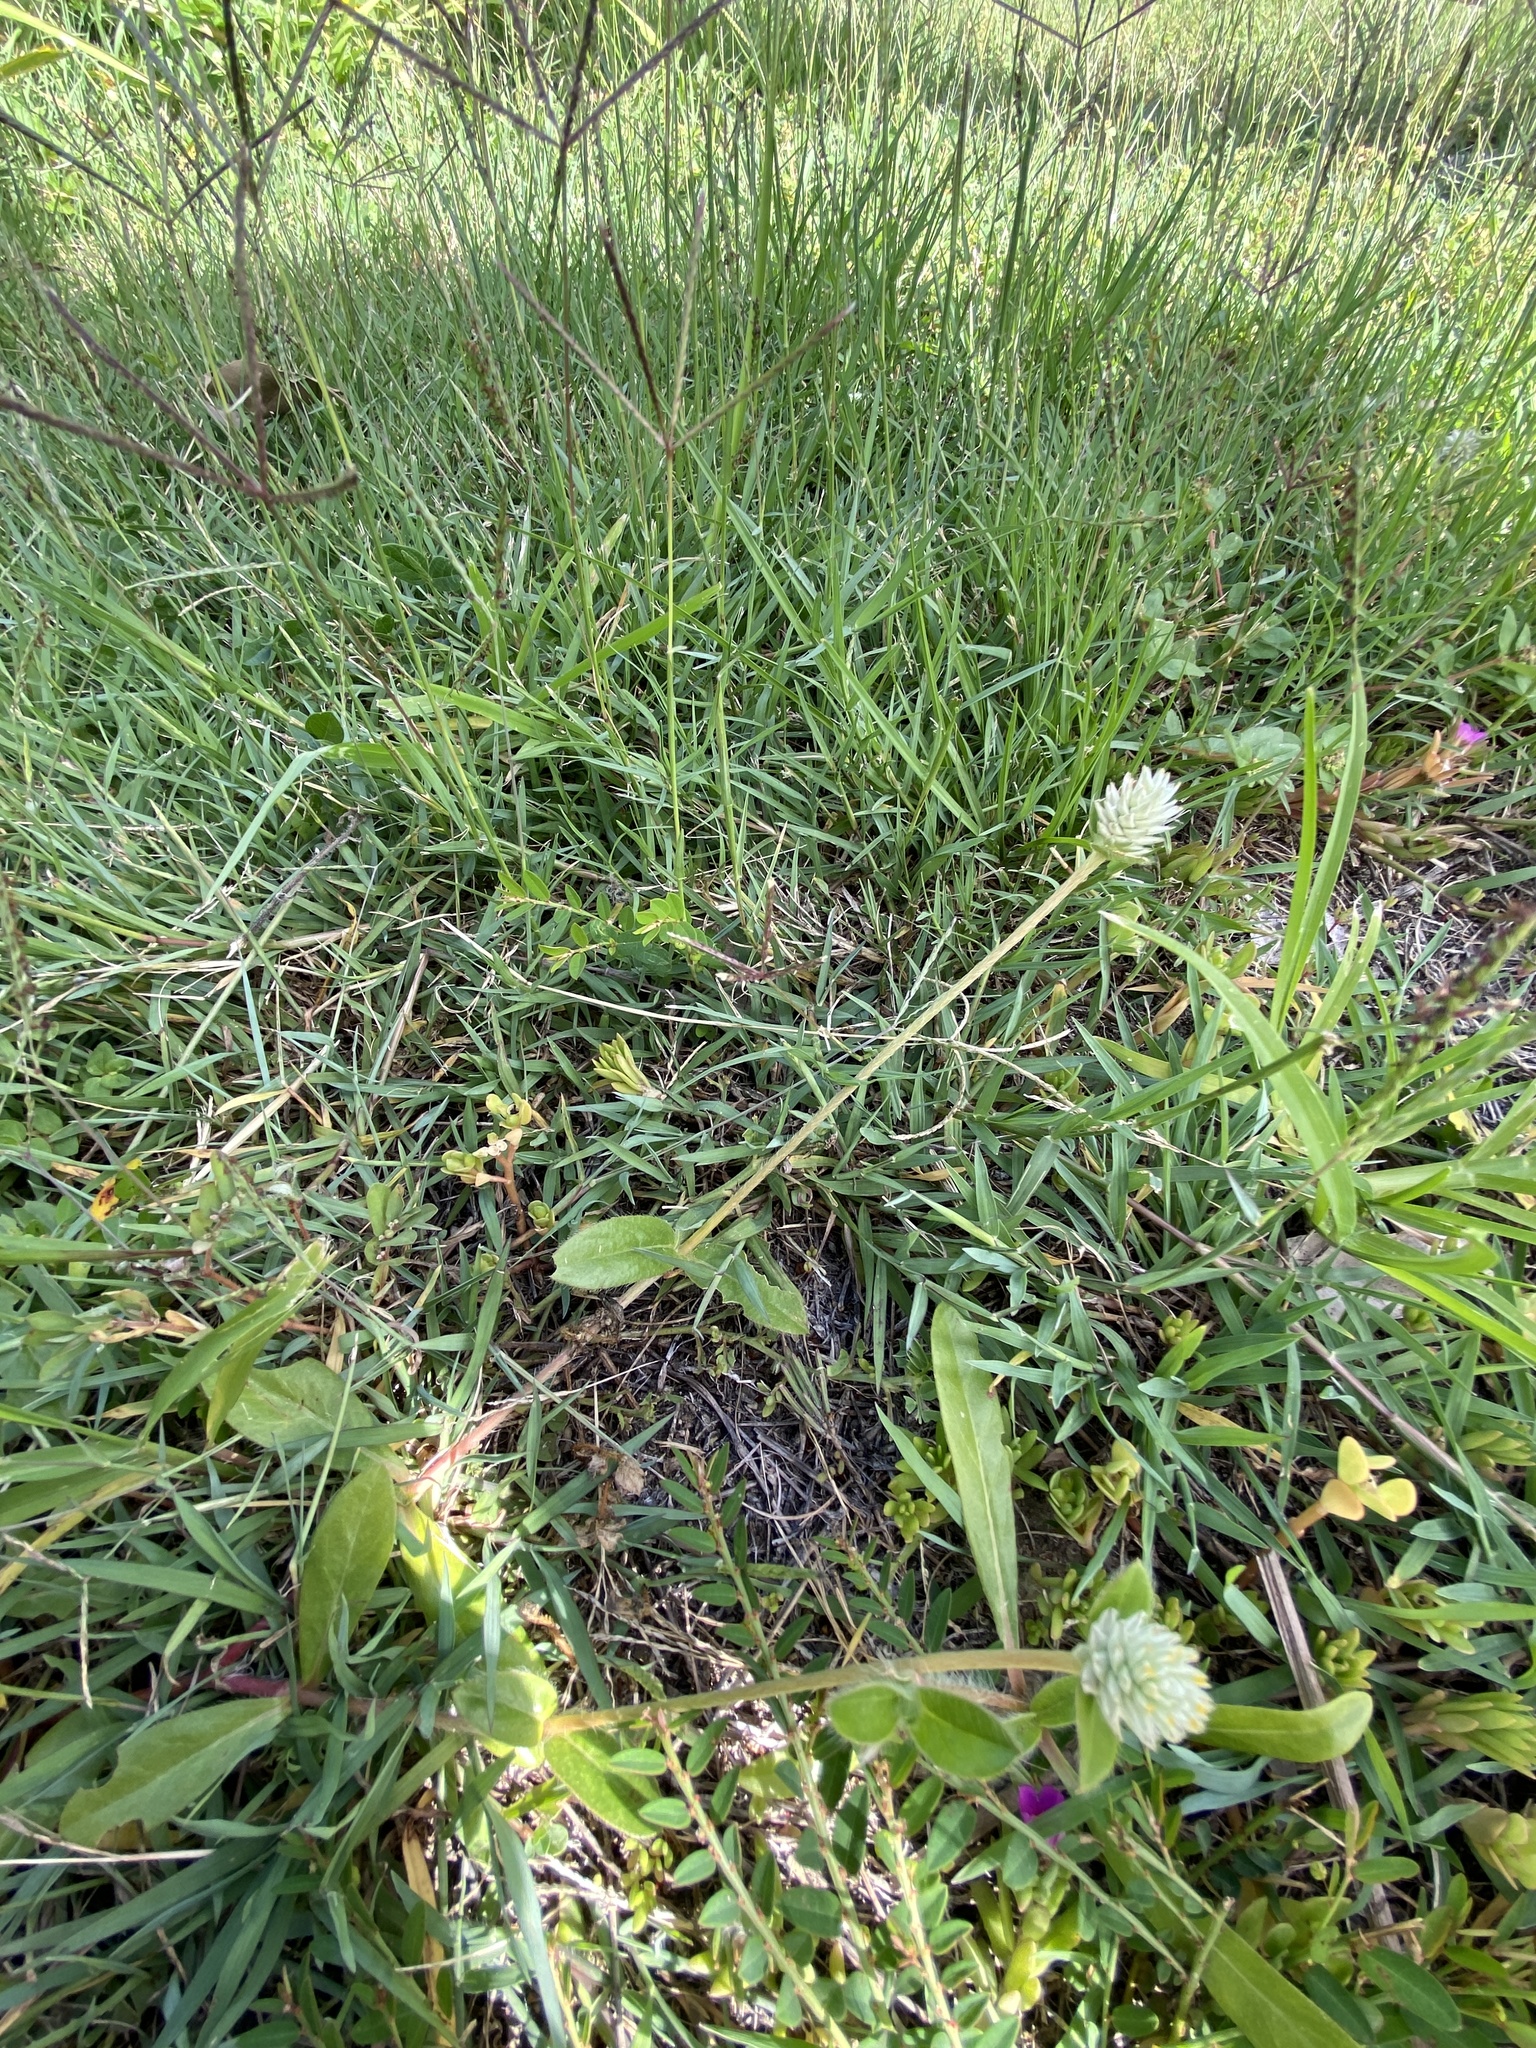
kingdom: Plantae
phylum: Tracheophyta
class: Magnoliopsida
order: Caryophyllales
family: Amaranthaceae
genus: Gomphrena
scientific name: Gomphrena celosioides
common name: Gomphrena-weed
